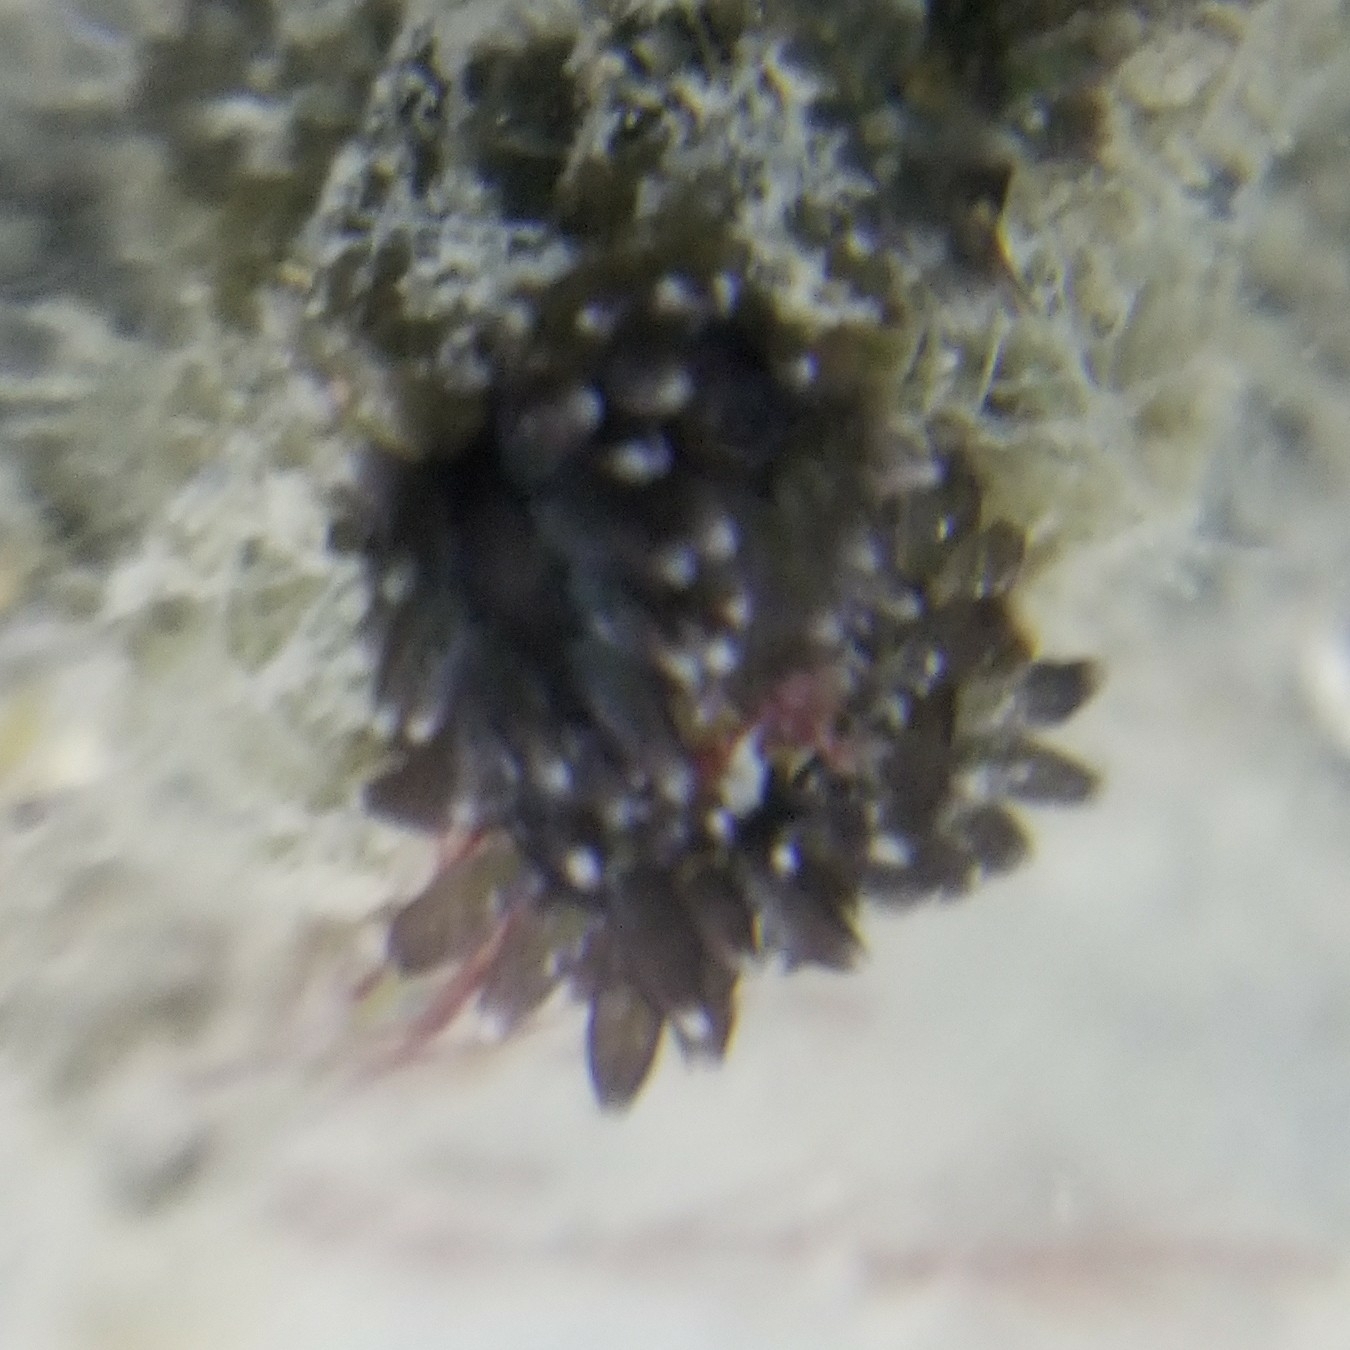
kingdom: Animalia
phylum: Mollusca
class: Gastropoda
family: Hermaeidae
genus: Aplysiopsis
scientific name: Aplysiopsis enteromorphae
